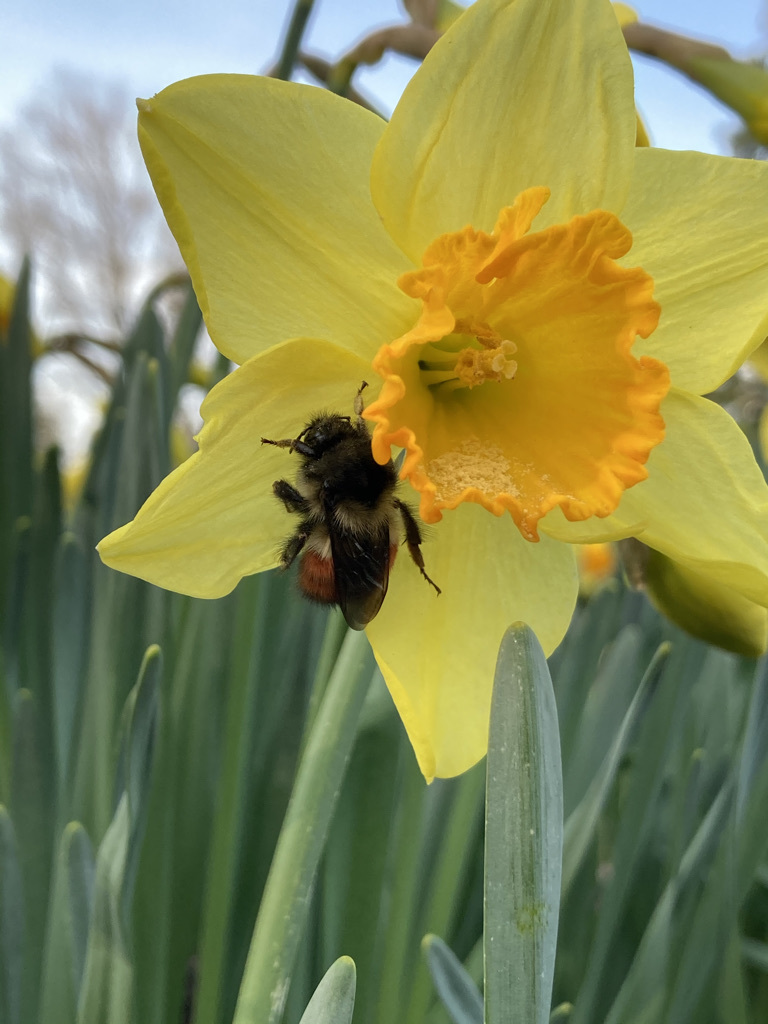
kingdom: Animalia
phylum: Arthropoda
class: Insecta
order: Hymenoptera
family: Apidae
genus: Bombus
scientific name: Bombus melanopygus
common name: Black tail bumble bee
